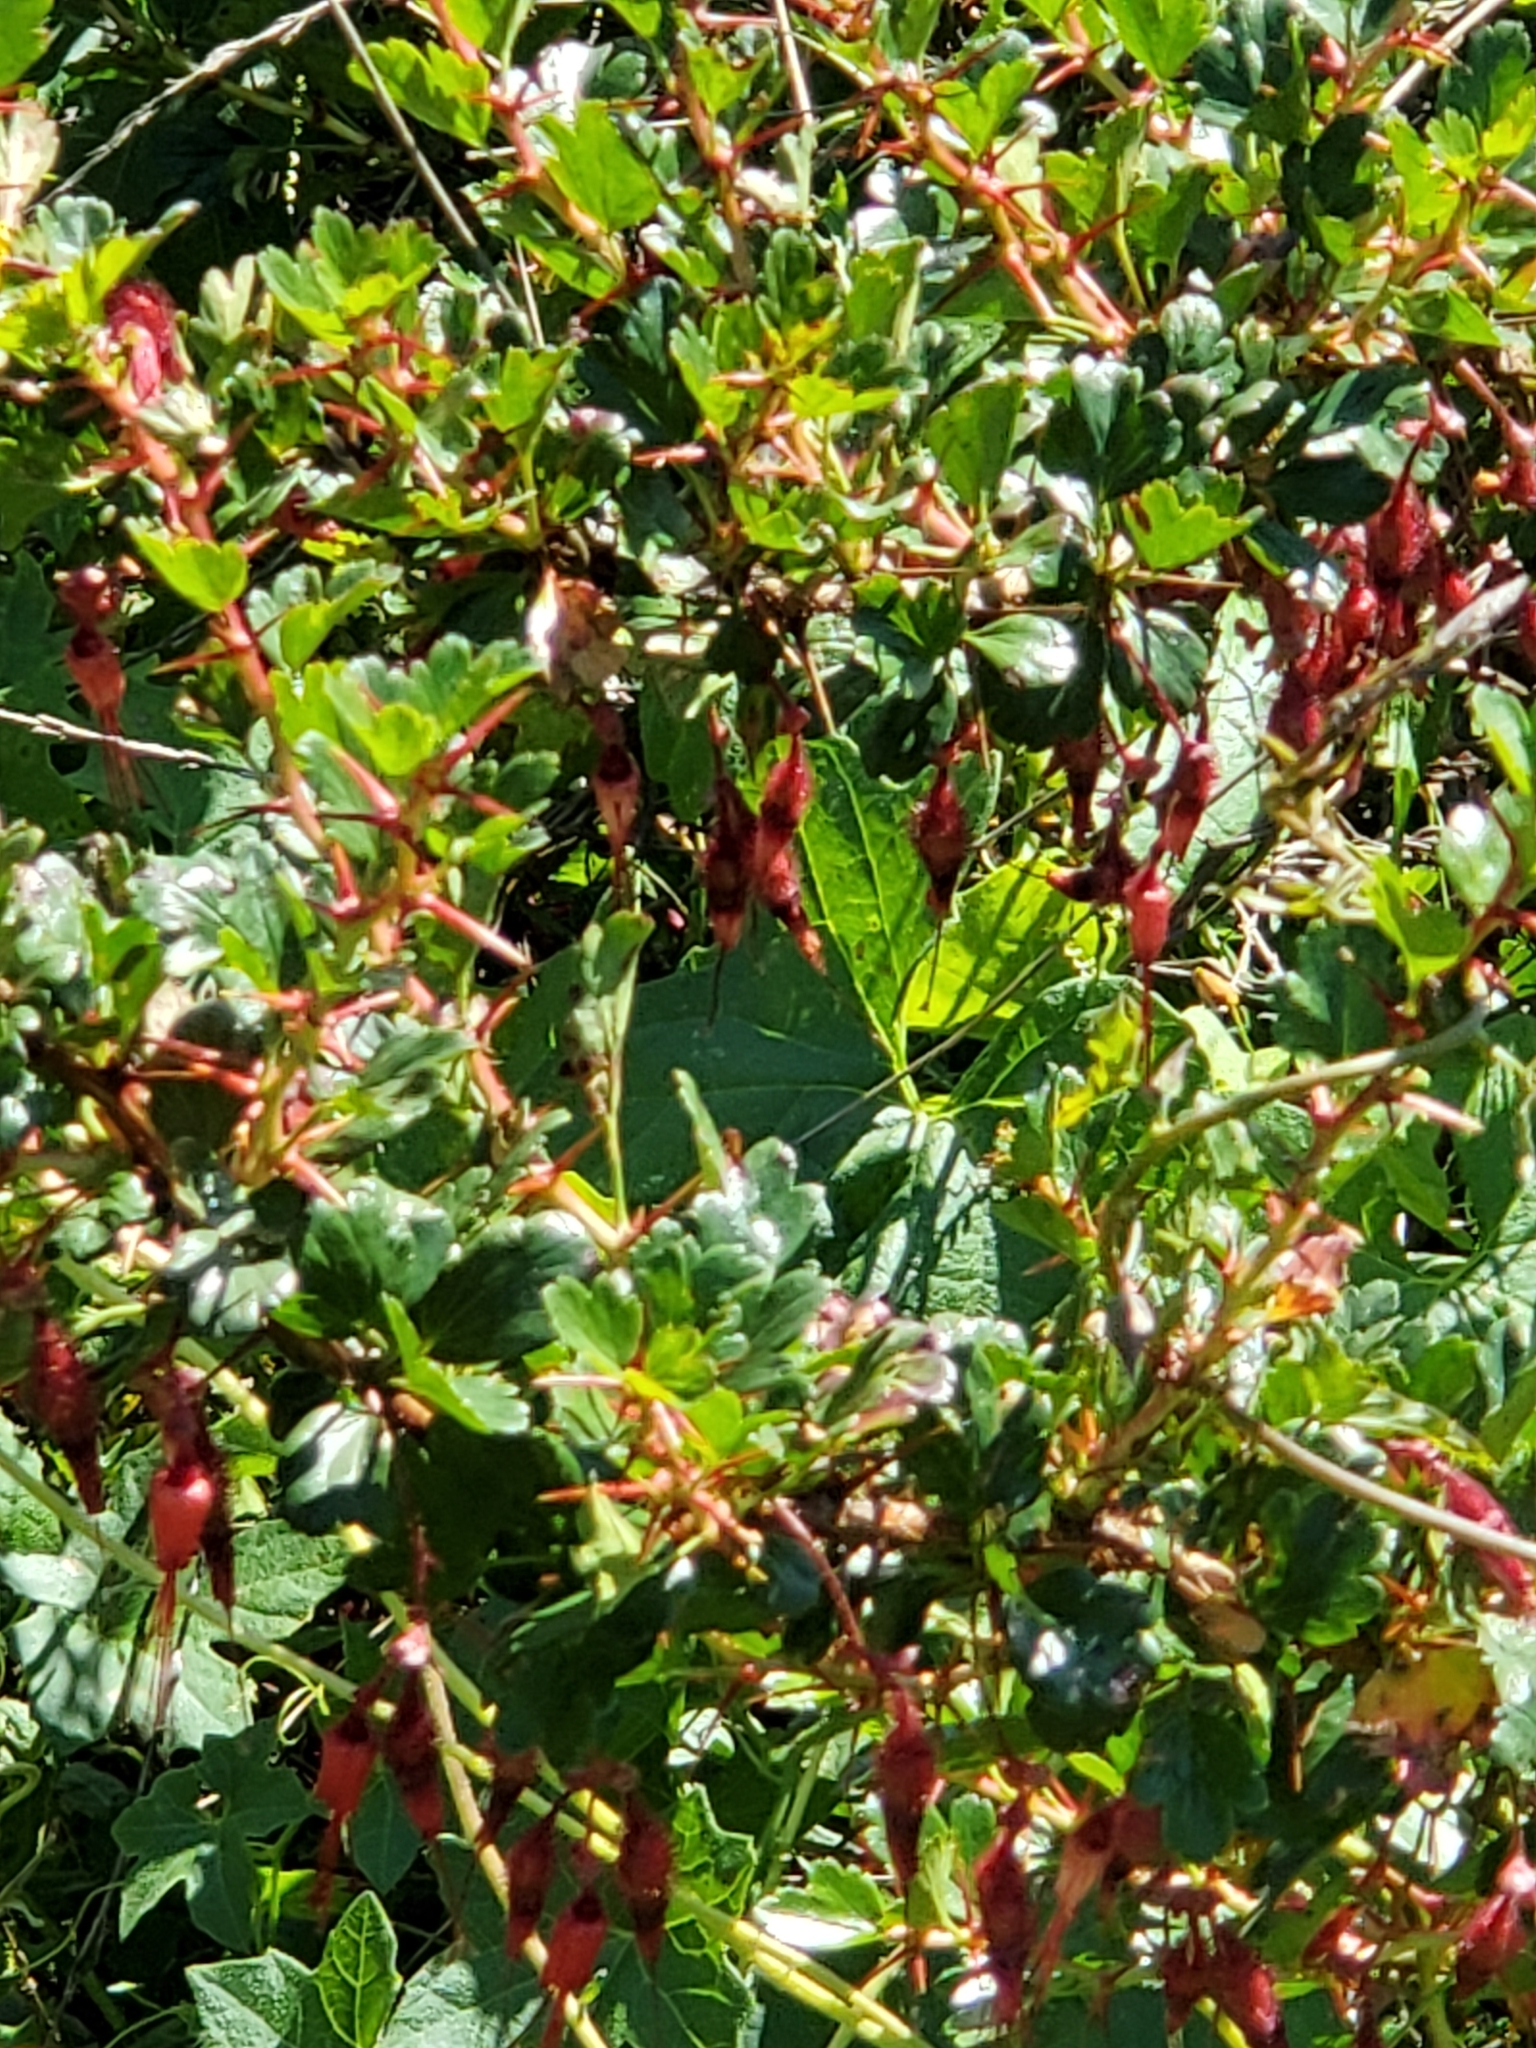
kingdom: Plantae
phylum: Tracheophyta
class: Magnoliopsida
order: Saxifragales
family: Grossulariaceae
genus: Ribes
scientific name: Ribes speciosum
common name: Fuchsia-flower gooseberry
